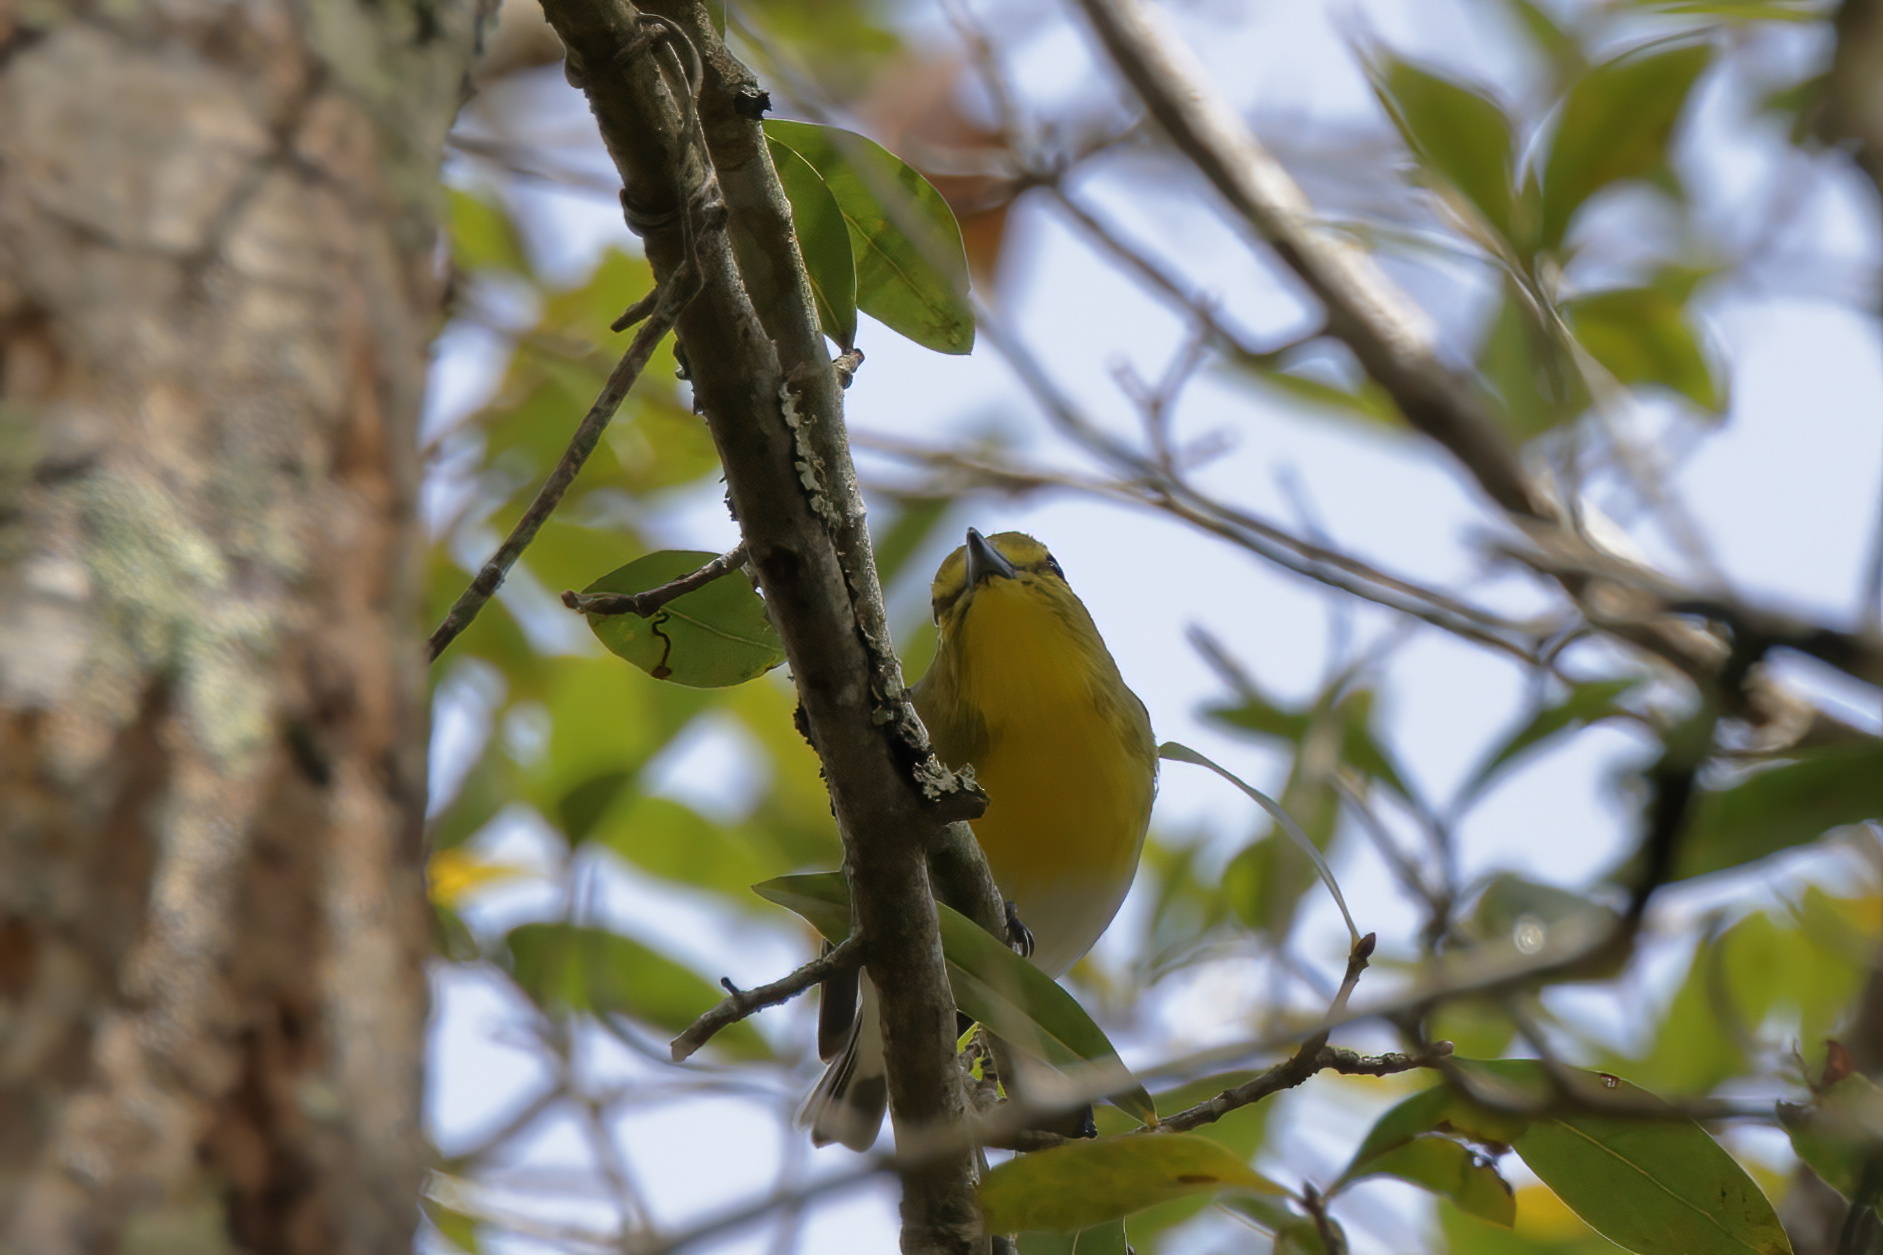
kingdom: Animalia
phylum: Chordata
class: Aves
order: Passeriformes
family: Vireonidae
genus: Vireo
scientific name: Vireo flavifrons
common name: Yellow-throated vireo
